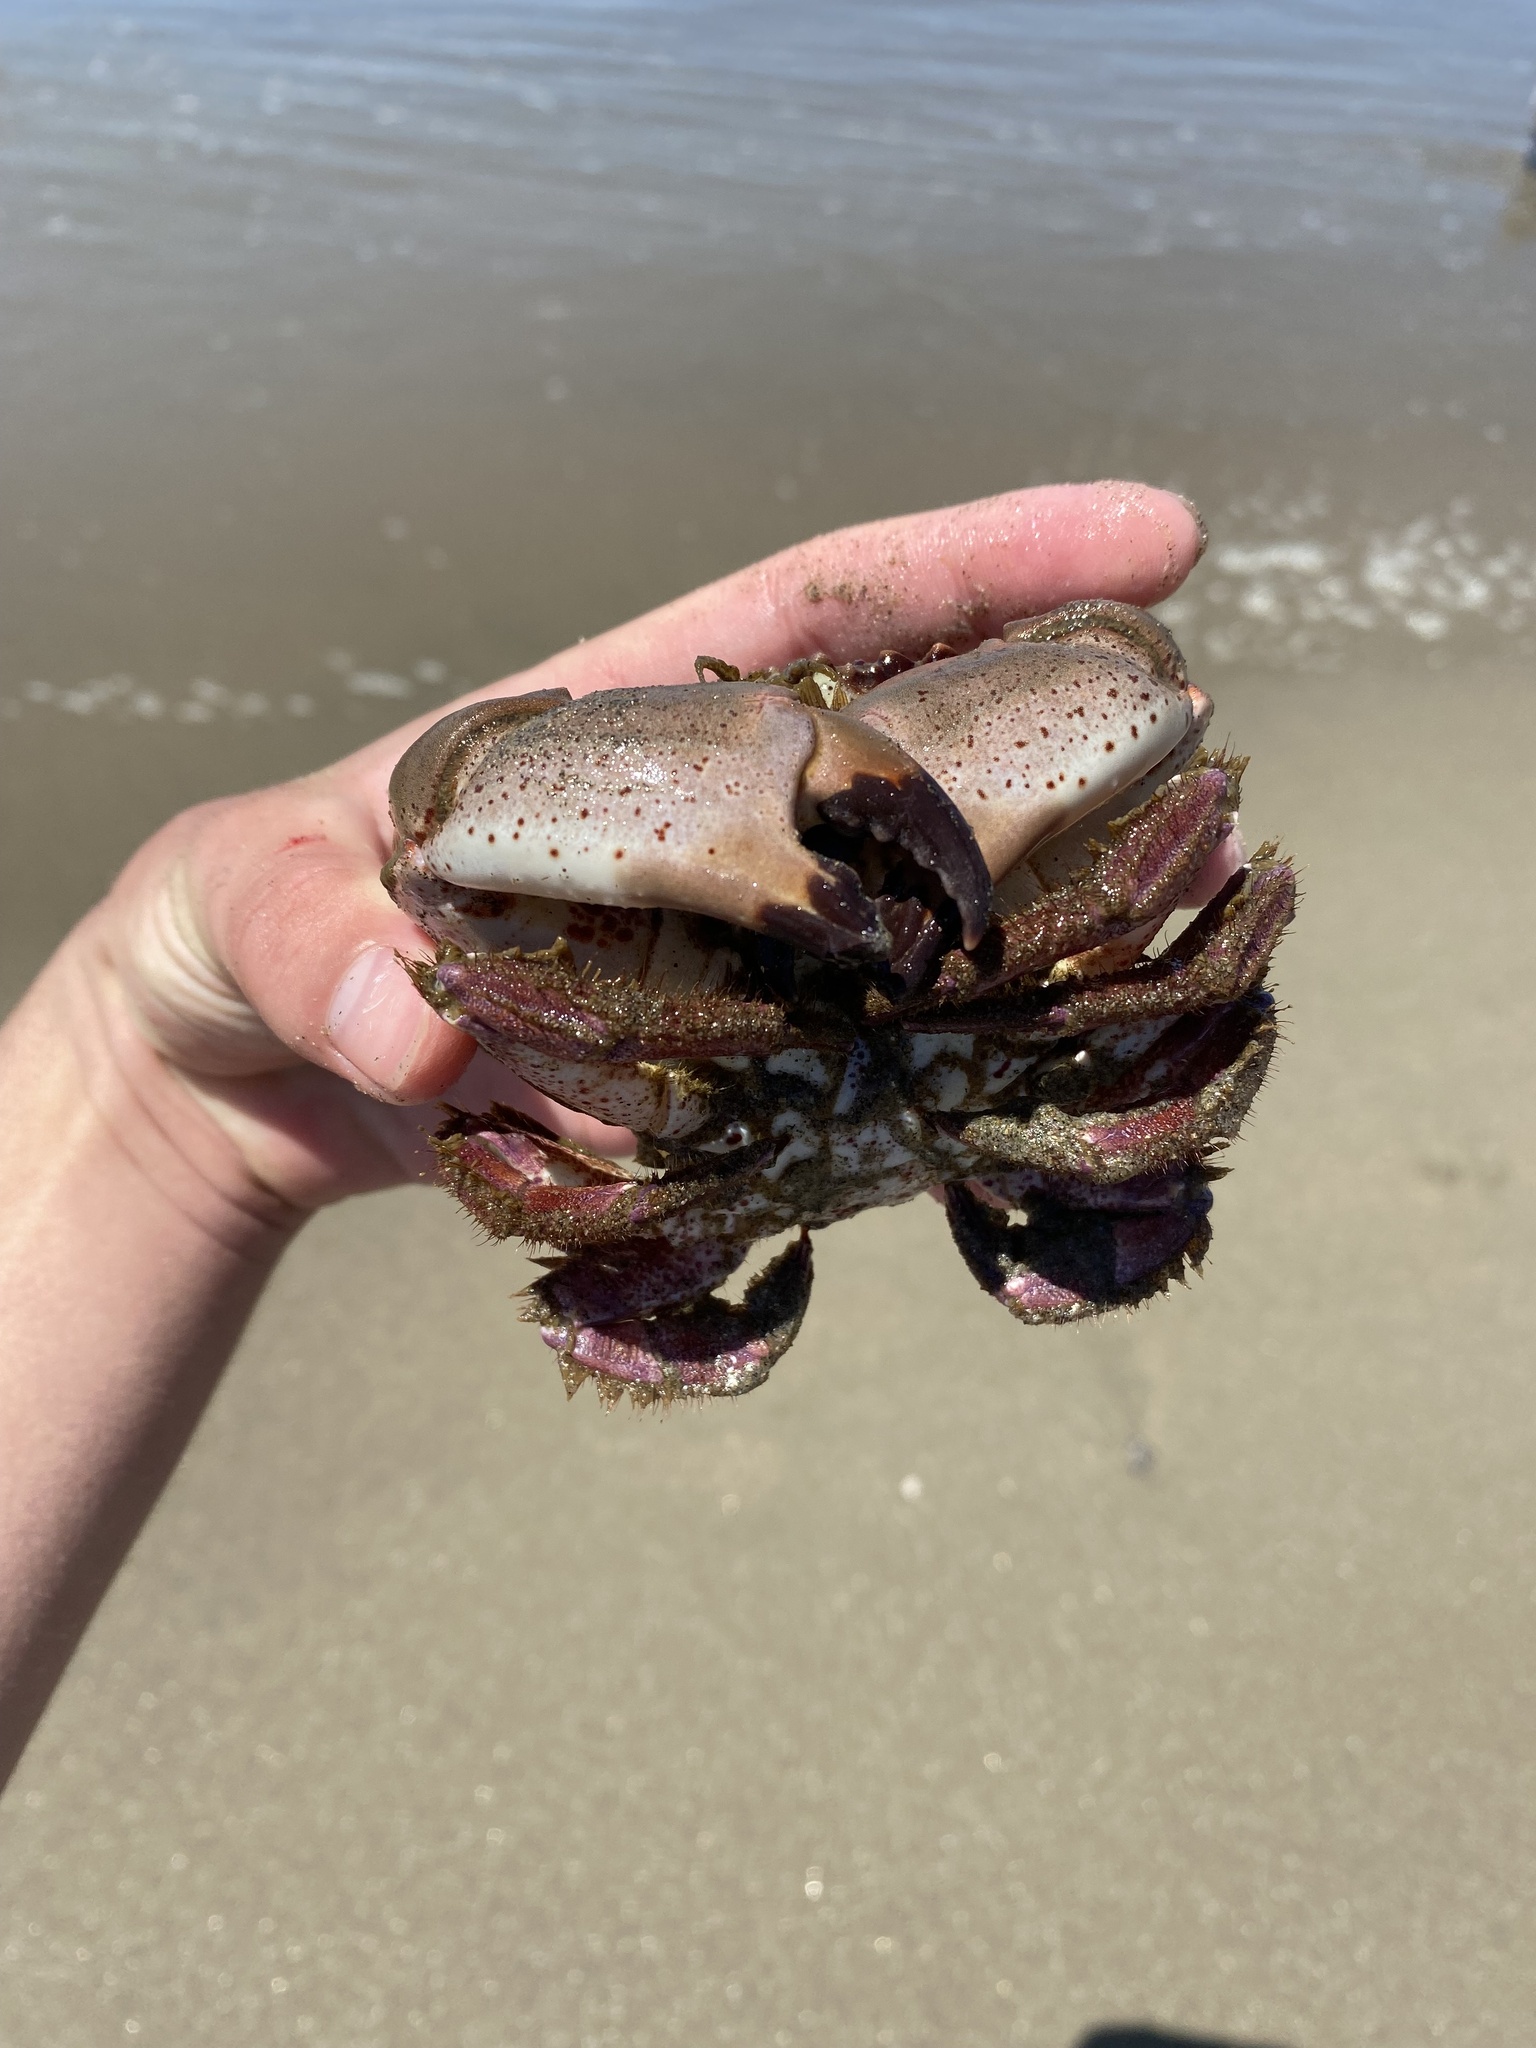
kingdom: Animalia
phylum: Arthropoda
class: Malacostraca
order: Decapoda
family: Cancridae
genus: Romaleon
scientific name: Romaleon antennarium
